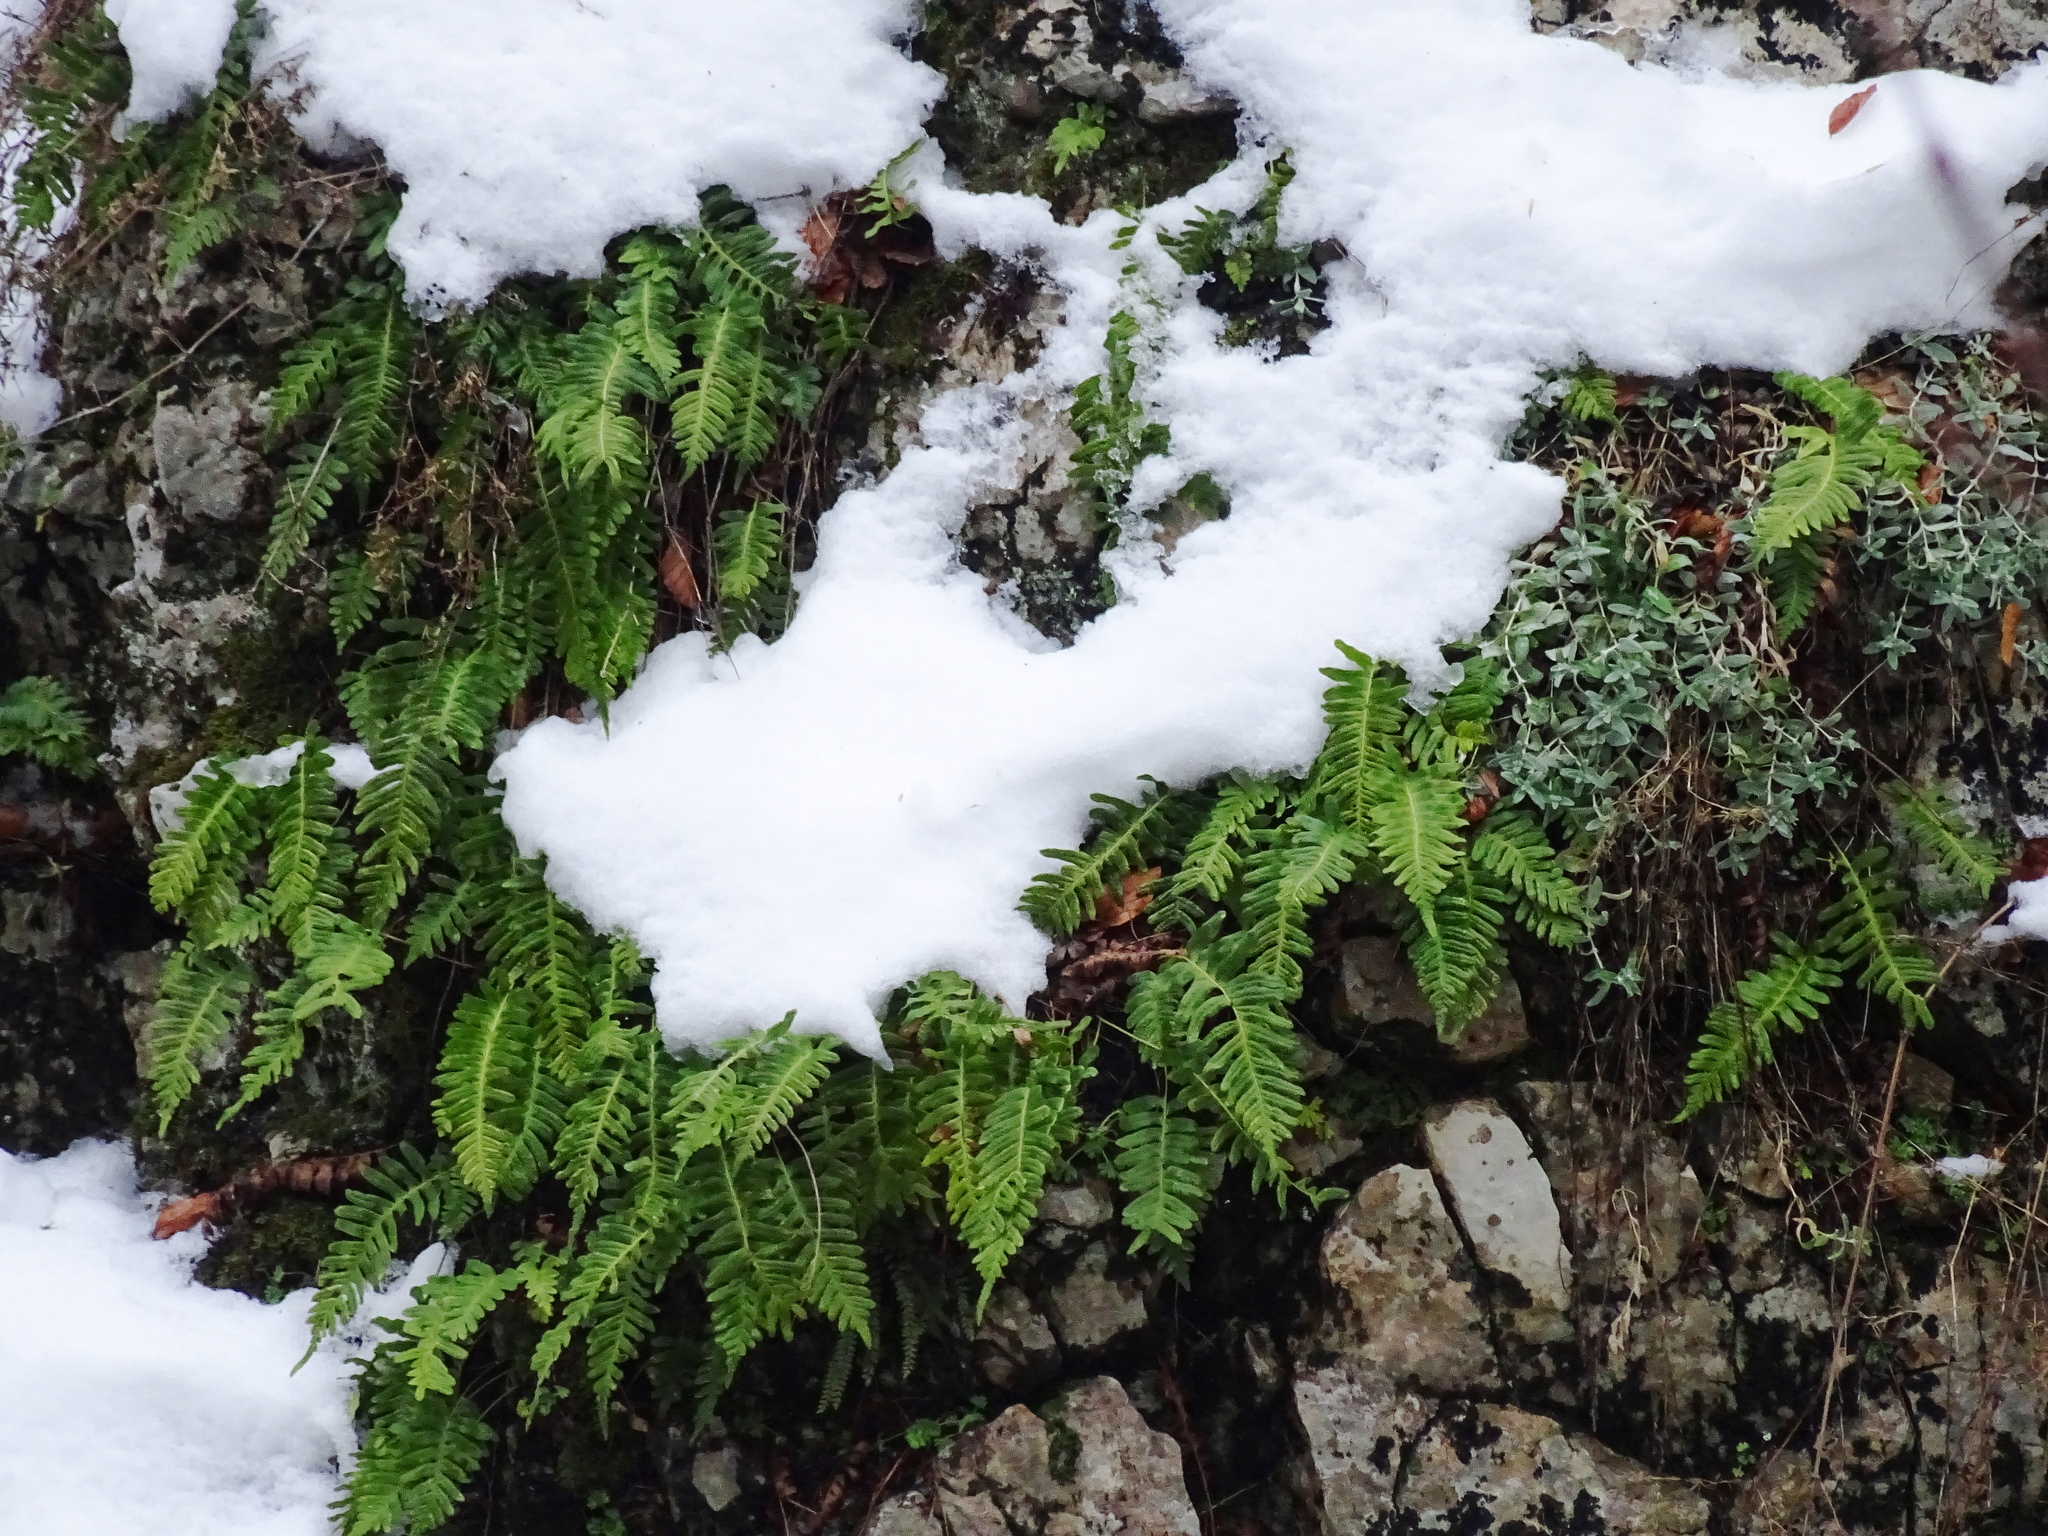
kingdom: Plantae
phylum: Tracheophyta
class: Polypodiopsida
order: Polypodiales
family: Polypodiaceae
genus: Polypodium
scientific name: Polypodium vulgare
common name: Common polypody
